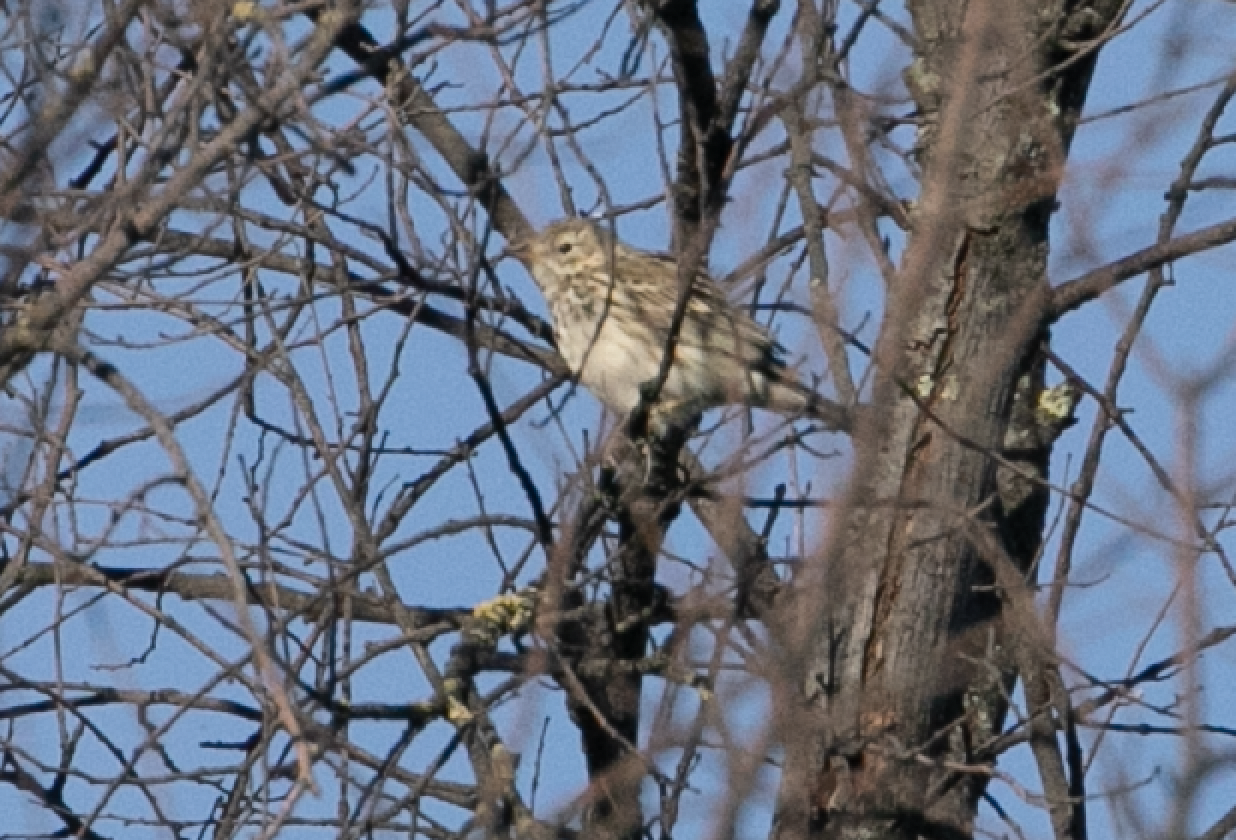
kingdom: Animalia
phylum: Chordata
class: Aves
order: Passeriformes
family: Motacillidae
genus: Anthus
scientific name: Anthus pratensis
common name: Meadow pipit
